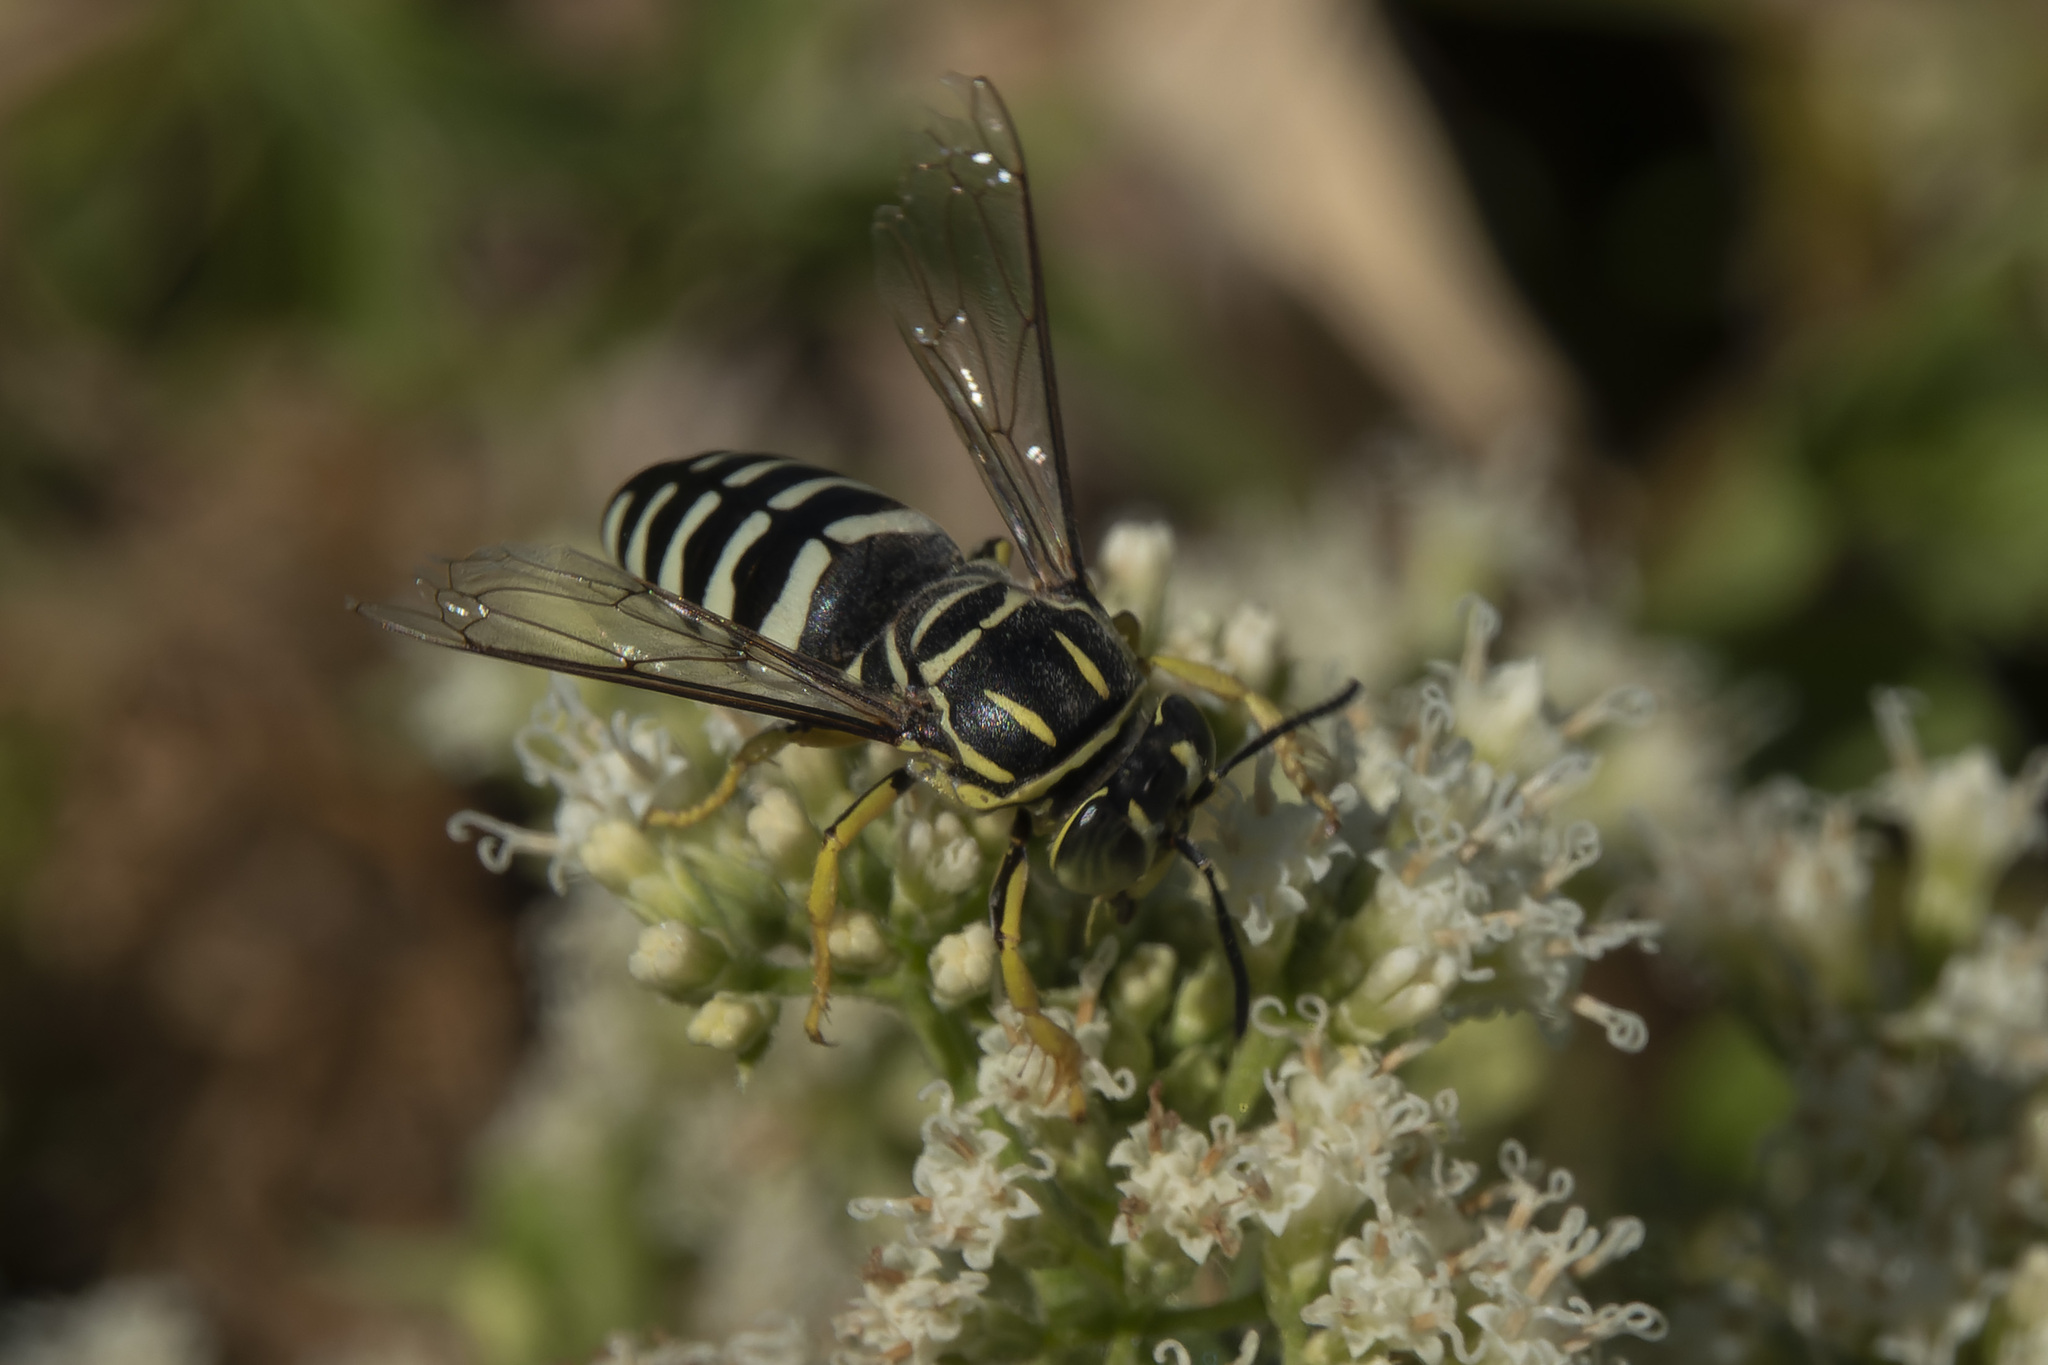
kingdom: Animalia
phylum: Arthropoda
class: Insecta
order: Hymenoptera
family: Crabronidae
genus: Bicyrtes
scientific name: Bicyrtes variegatus
